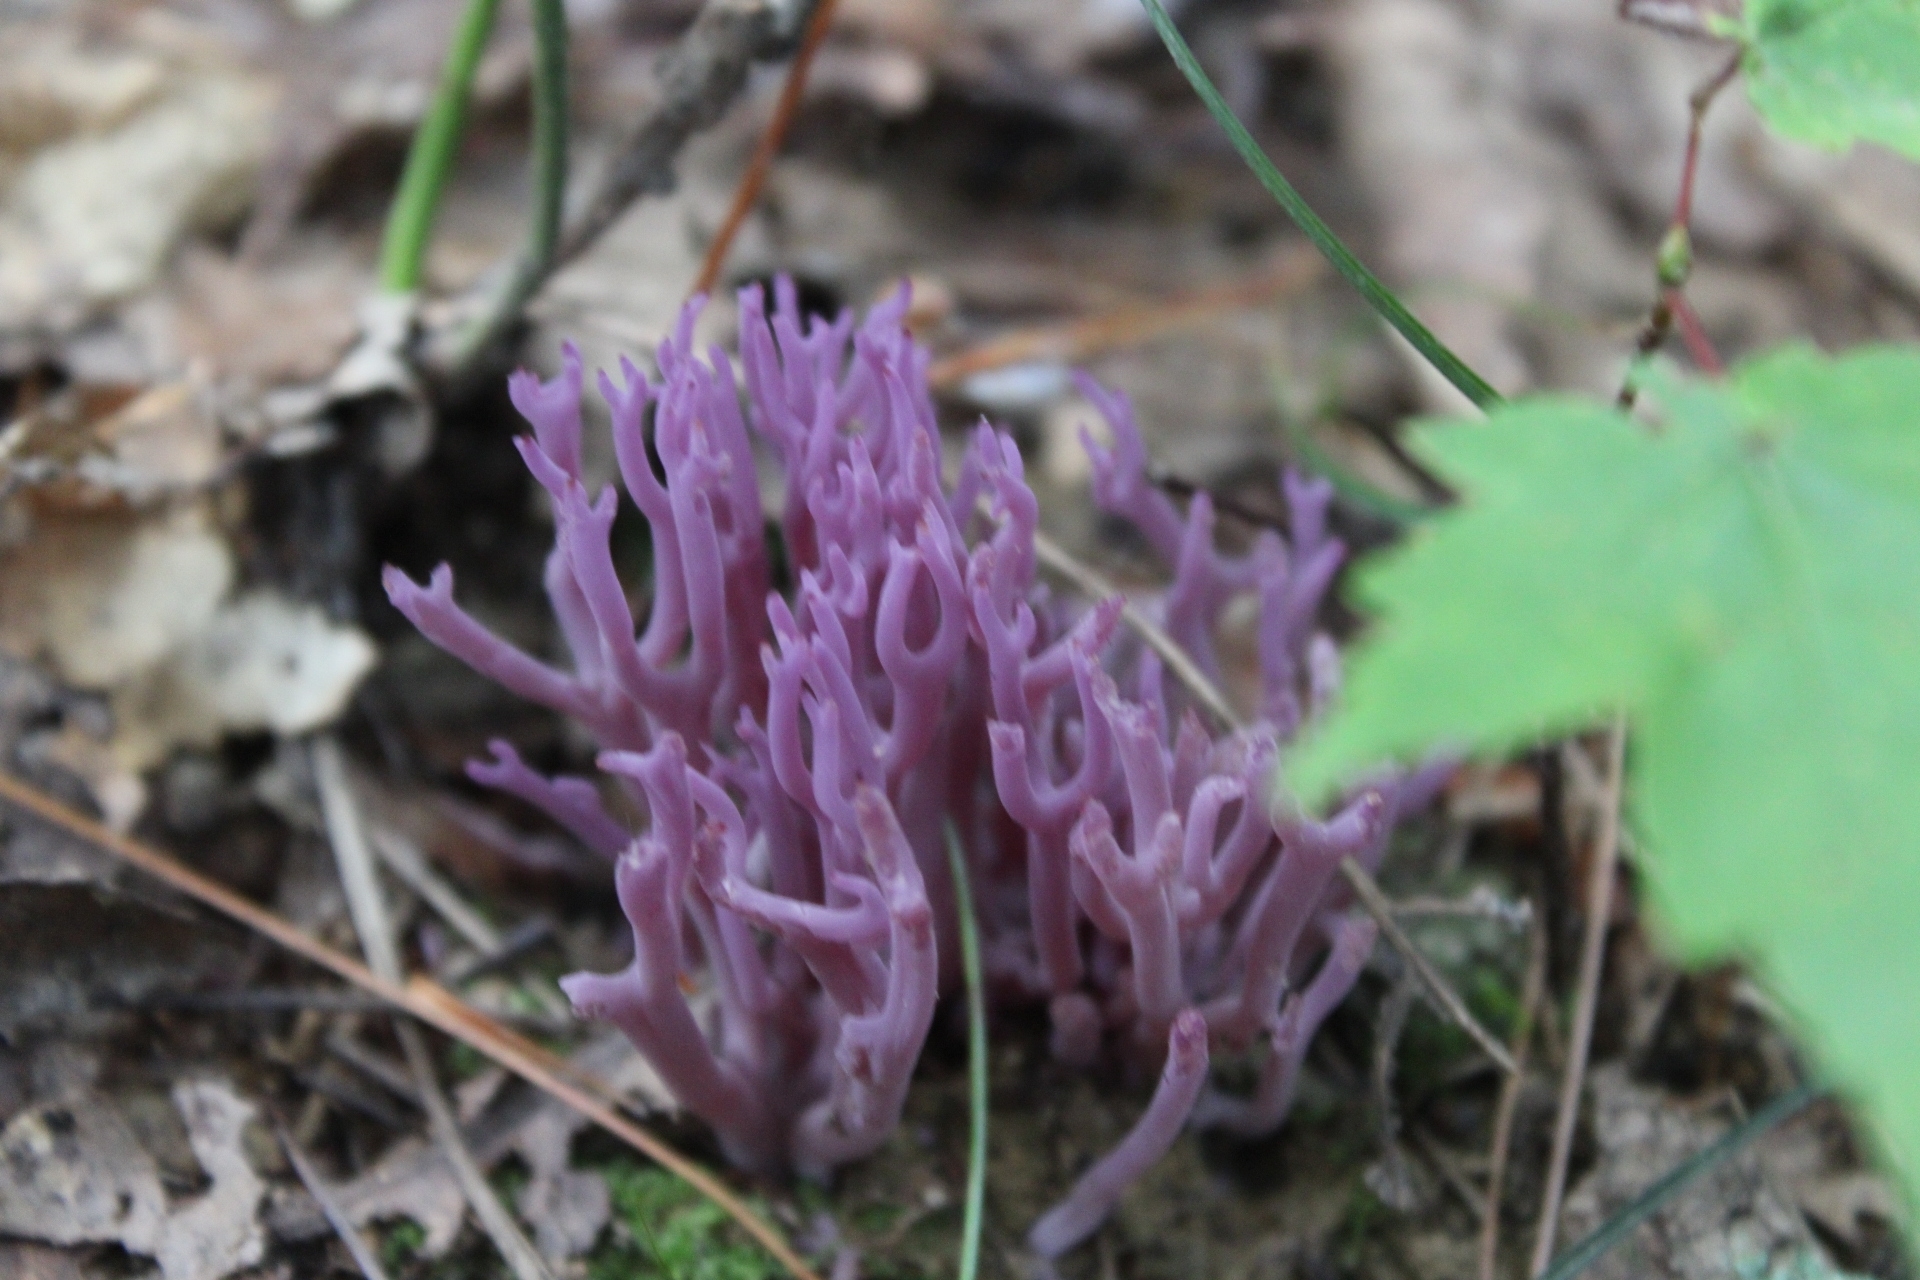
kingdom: Fungi
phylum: Basidiomycota
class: Agaricomycetes
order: Agaricales
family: Clavariaceae
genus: Clavaria
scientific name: Clavaria zollingeri
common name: Violet coral
